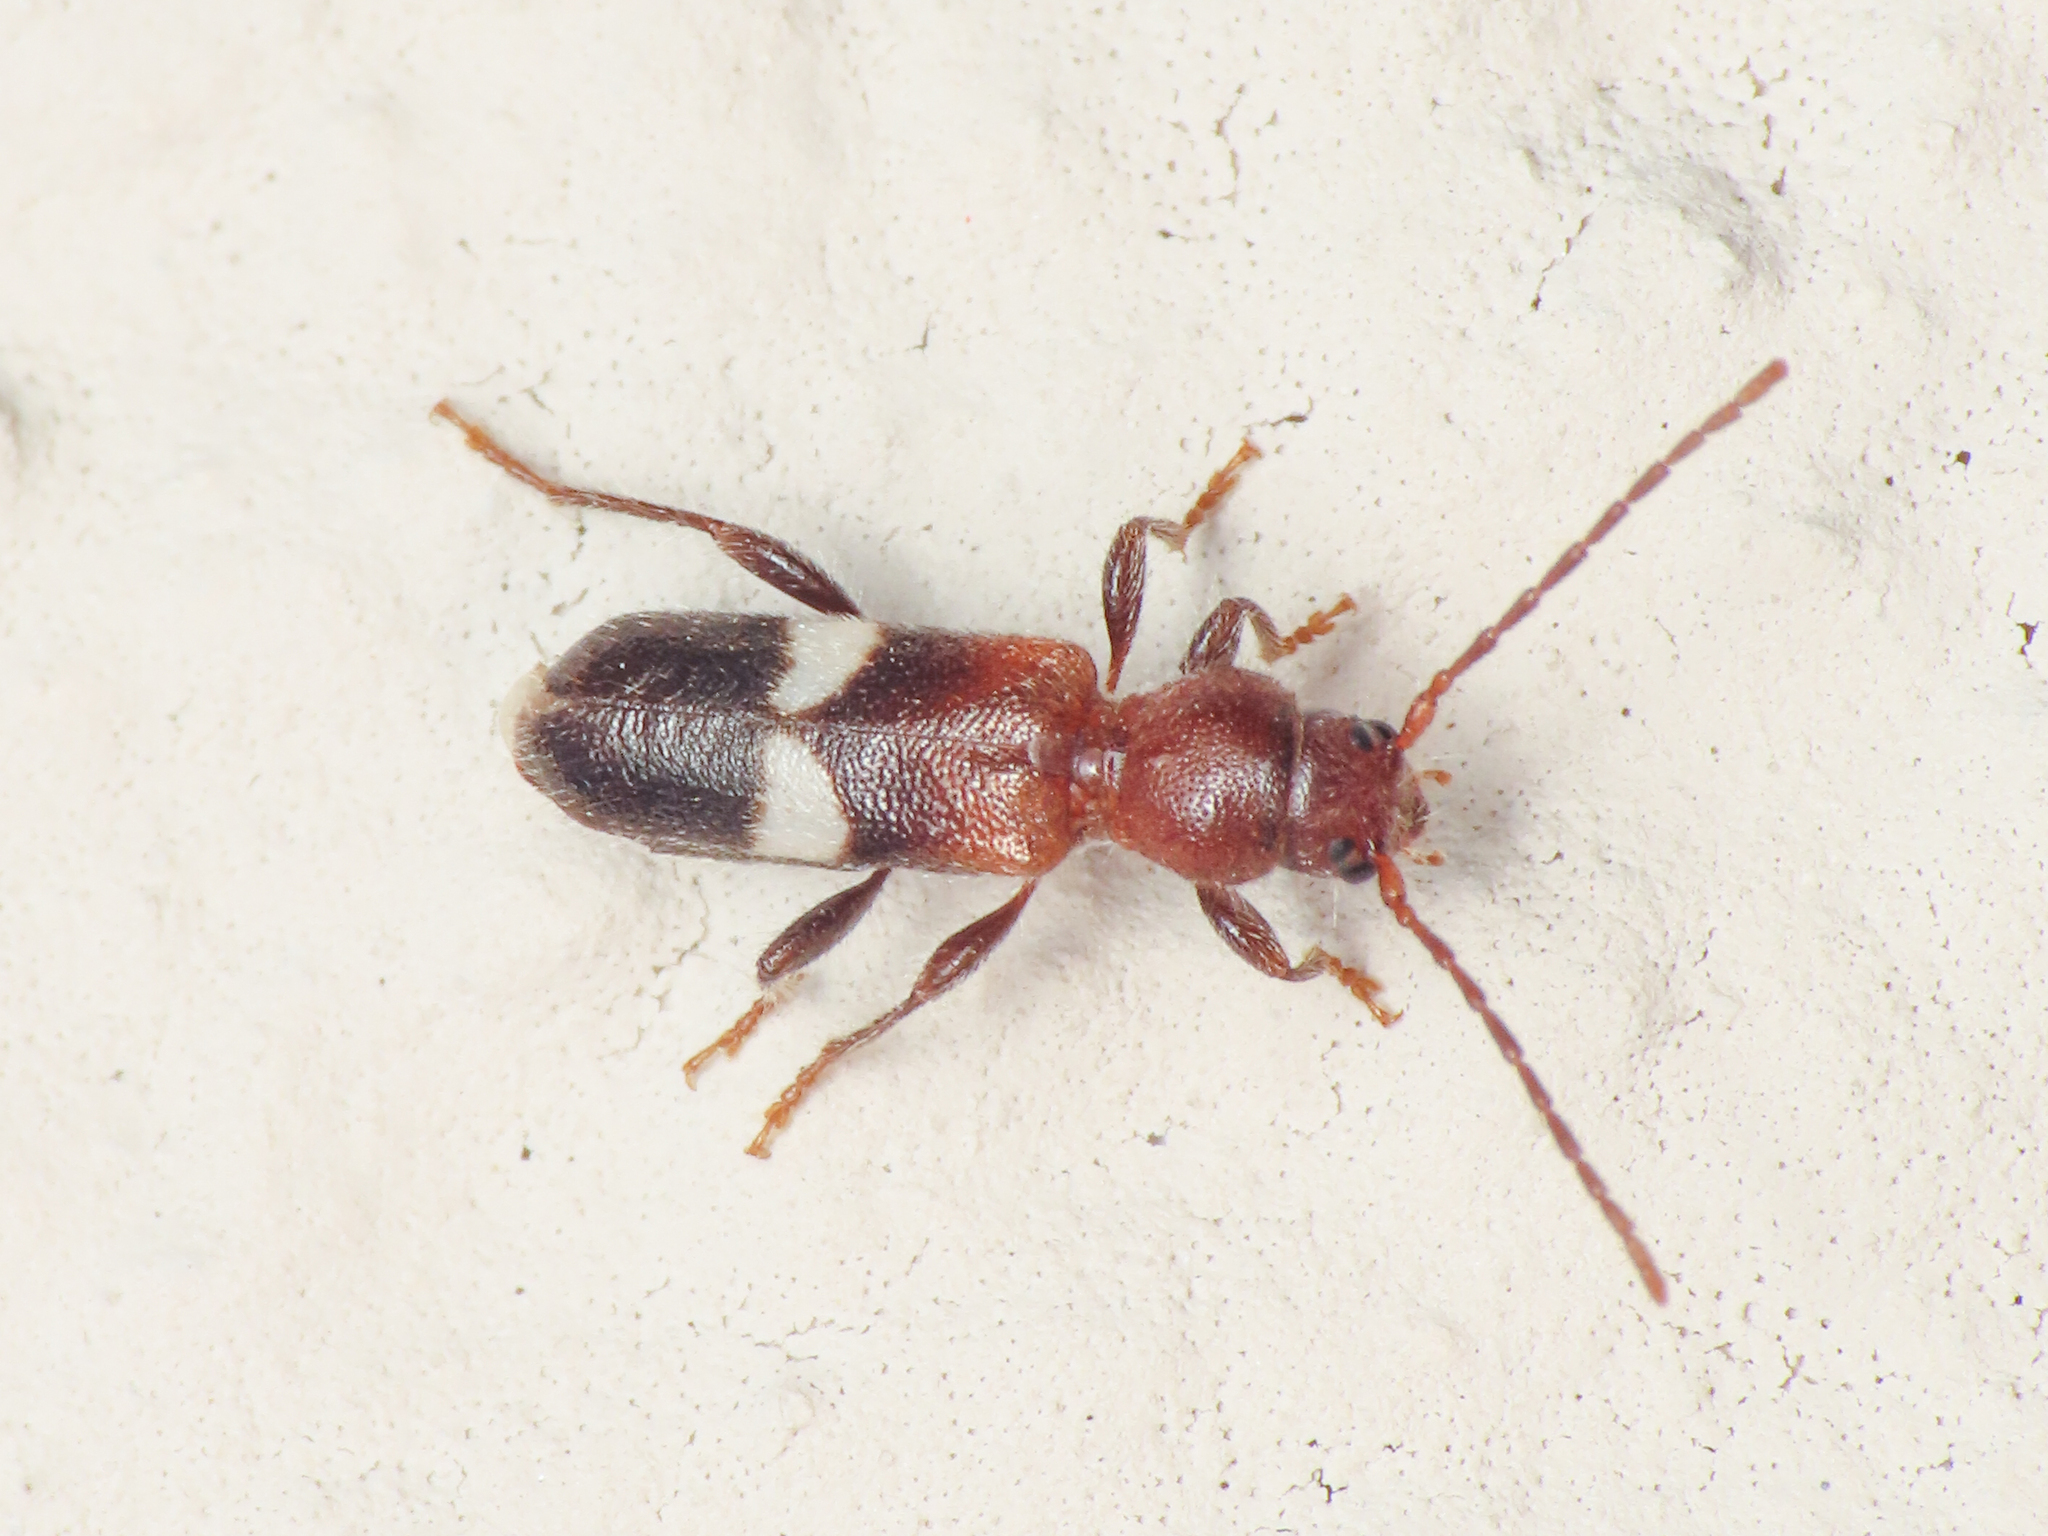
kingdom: Animalia
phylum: Arthropoda
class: Insecta
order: Coleoptera
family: Cerambycidae
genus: Poecilium
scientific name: Poecilium fasciatum
